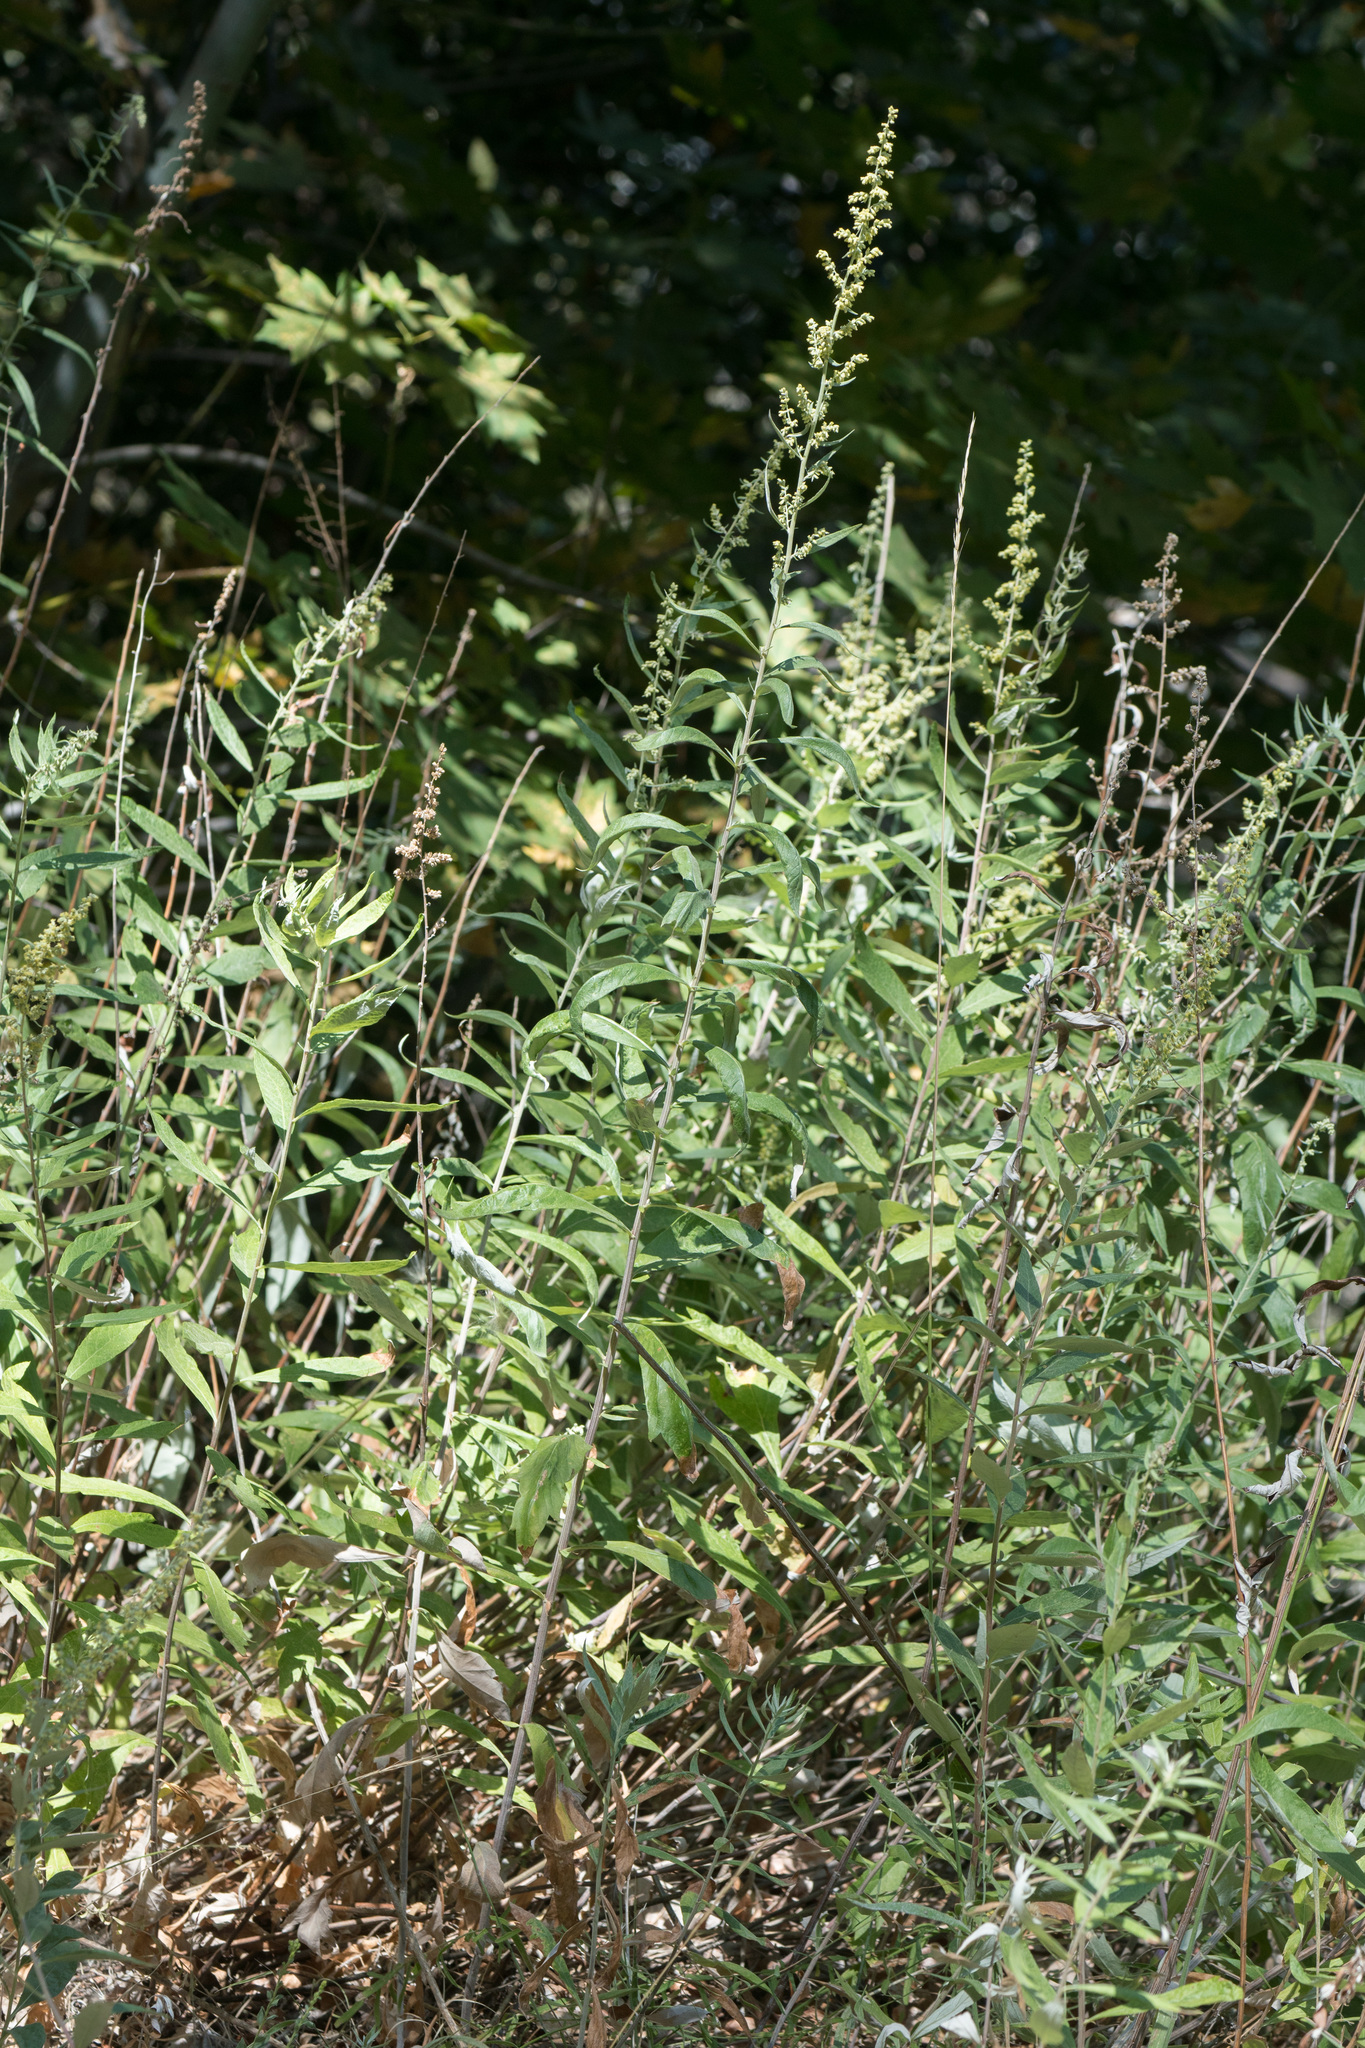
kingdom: Plantae
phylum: Tracheophyta
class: Magnoliopsida
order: Asterales
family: Asteraceae
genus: Artemisia
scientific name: Artemisia douglasiana
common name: Northwest mugwort
